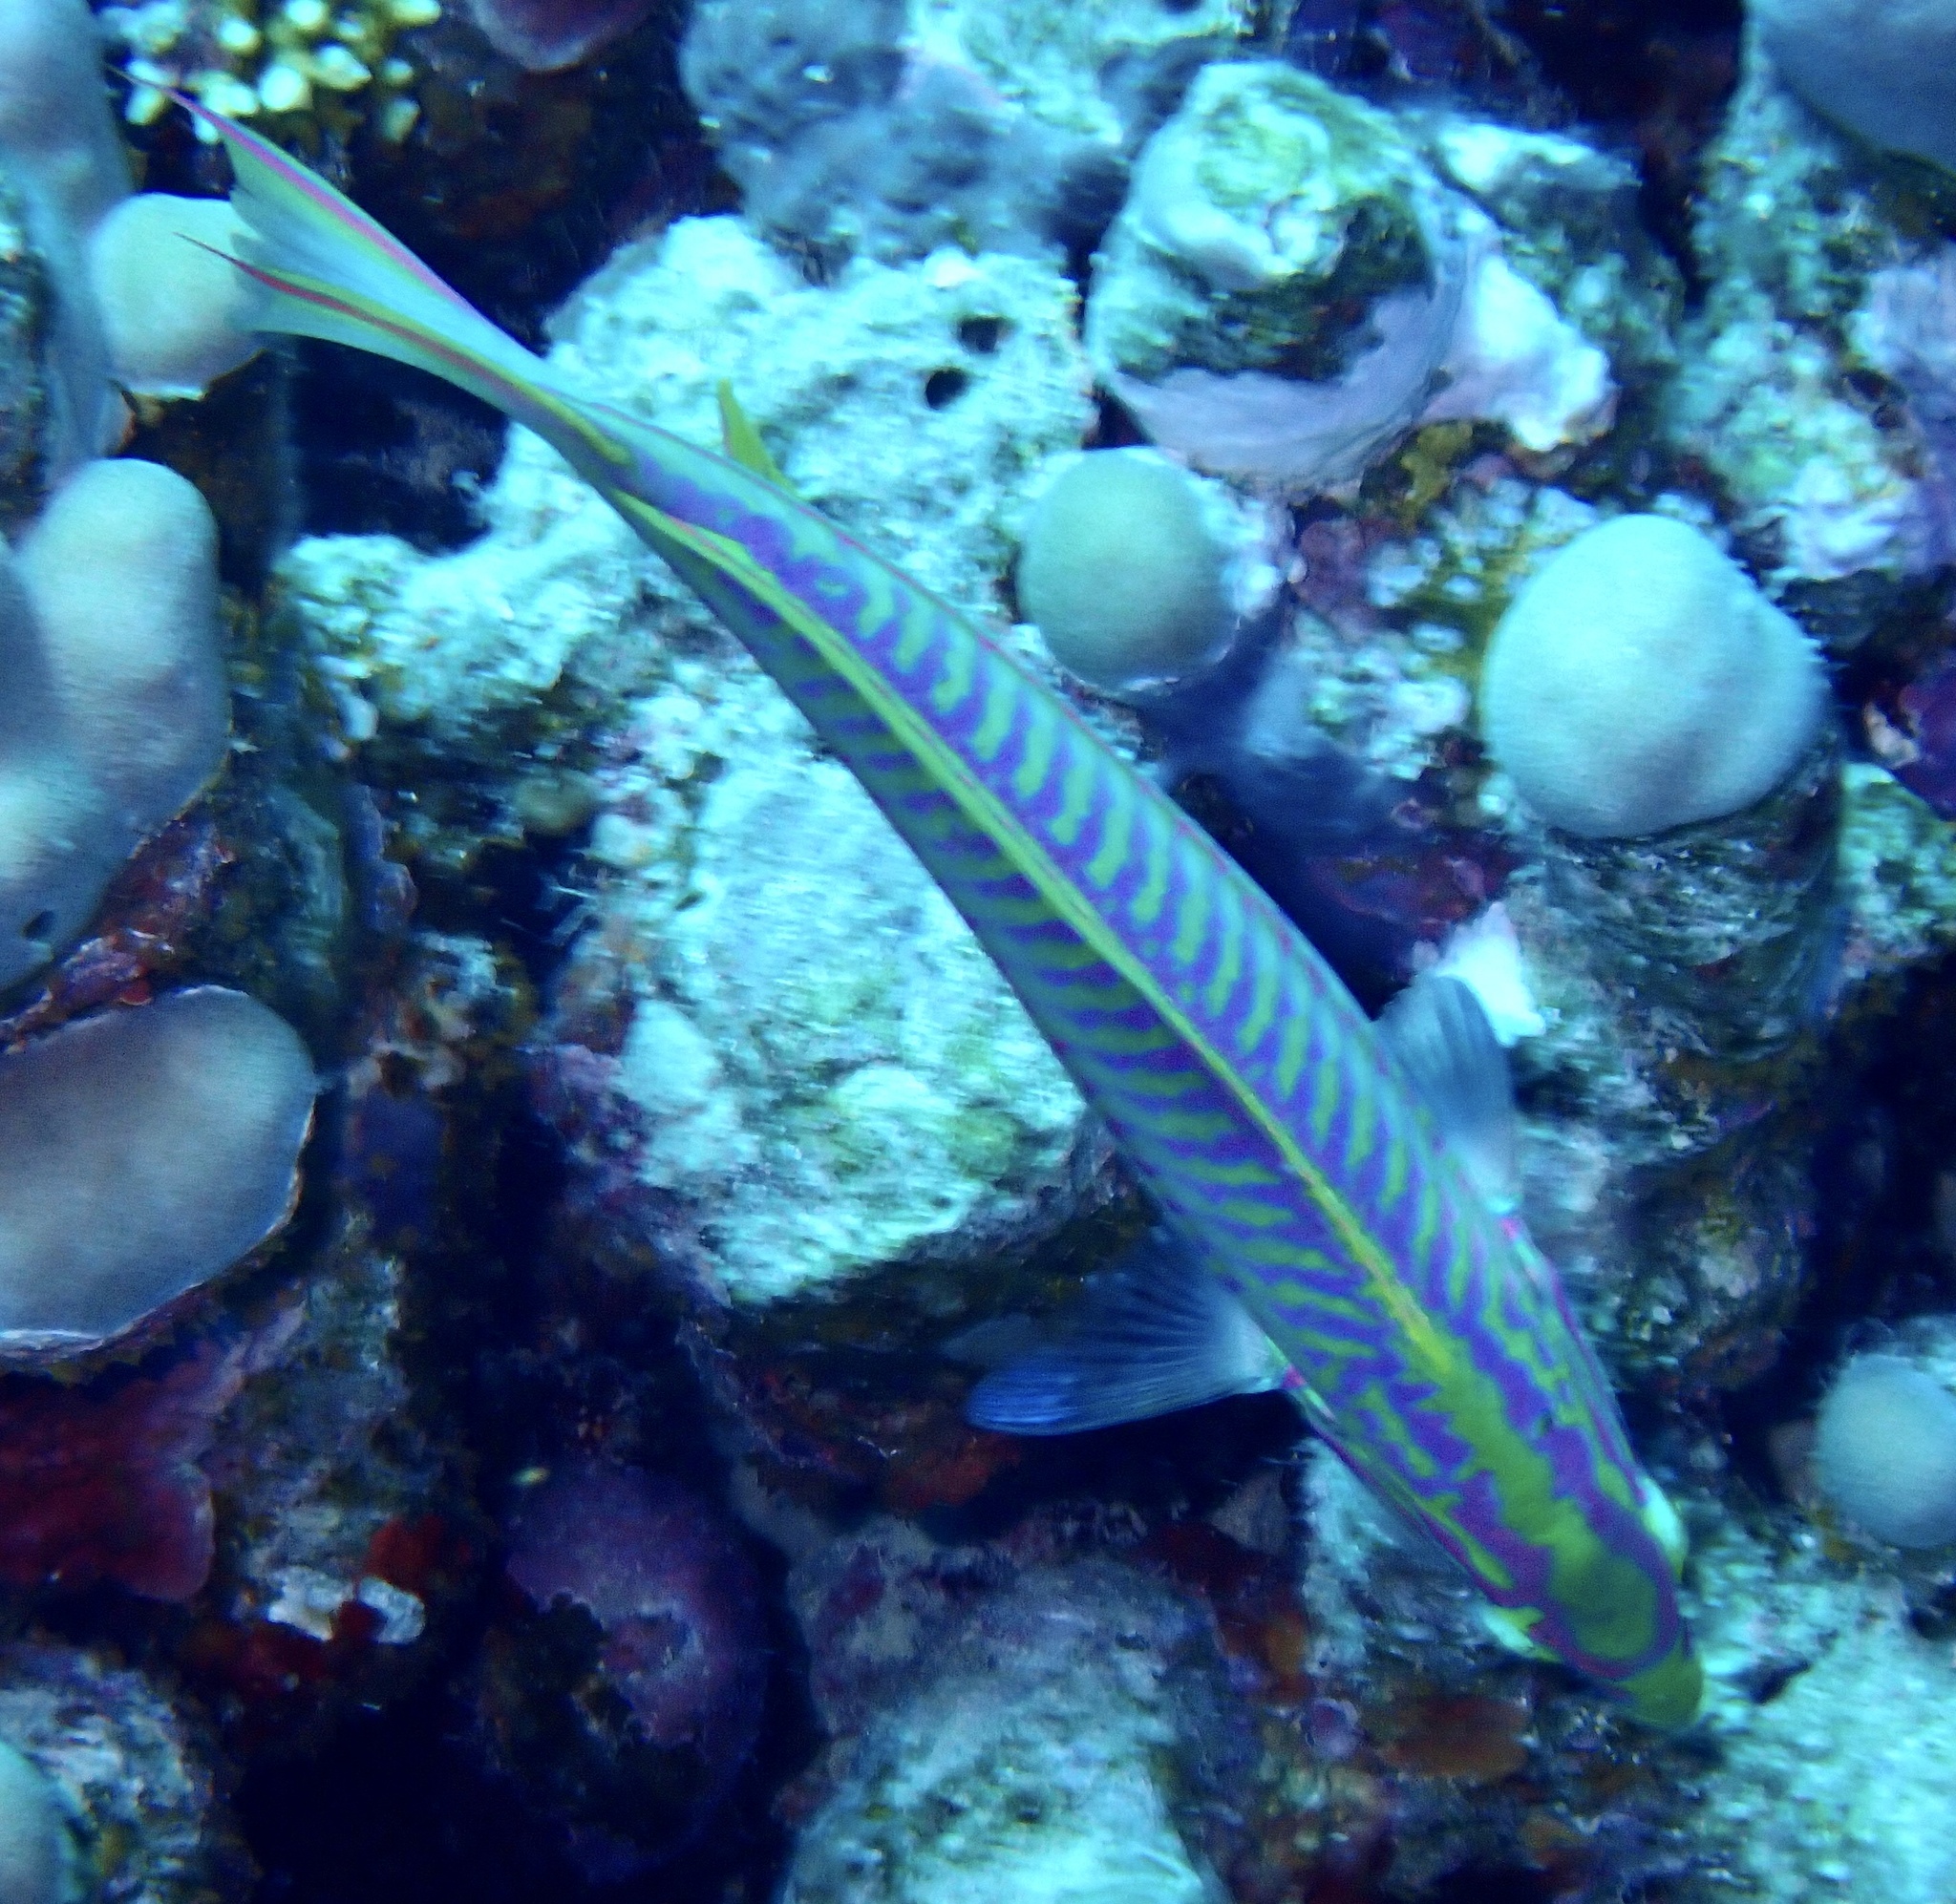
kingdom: Animalia
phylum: Chordata
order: Perciformes
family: Labridae
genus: Thalassoma
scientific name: Thalassoma rueppellii
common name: Klunzinger's wrasse
